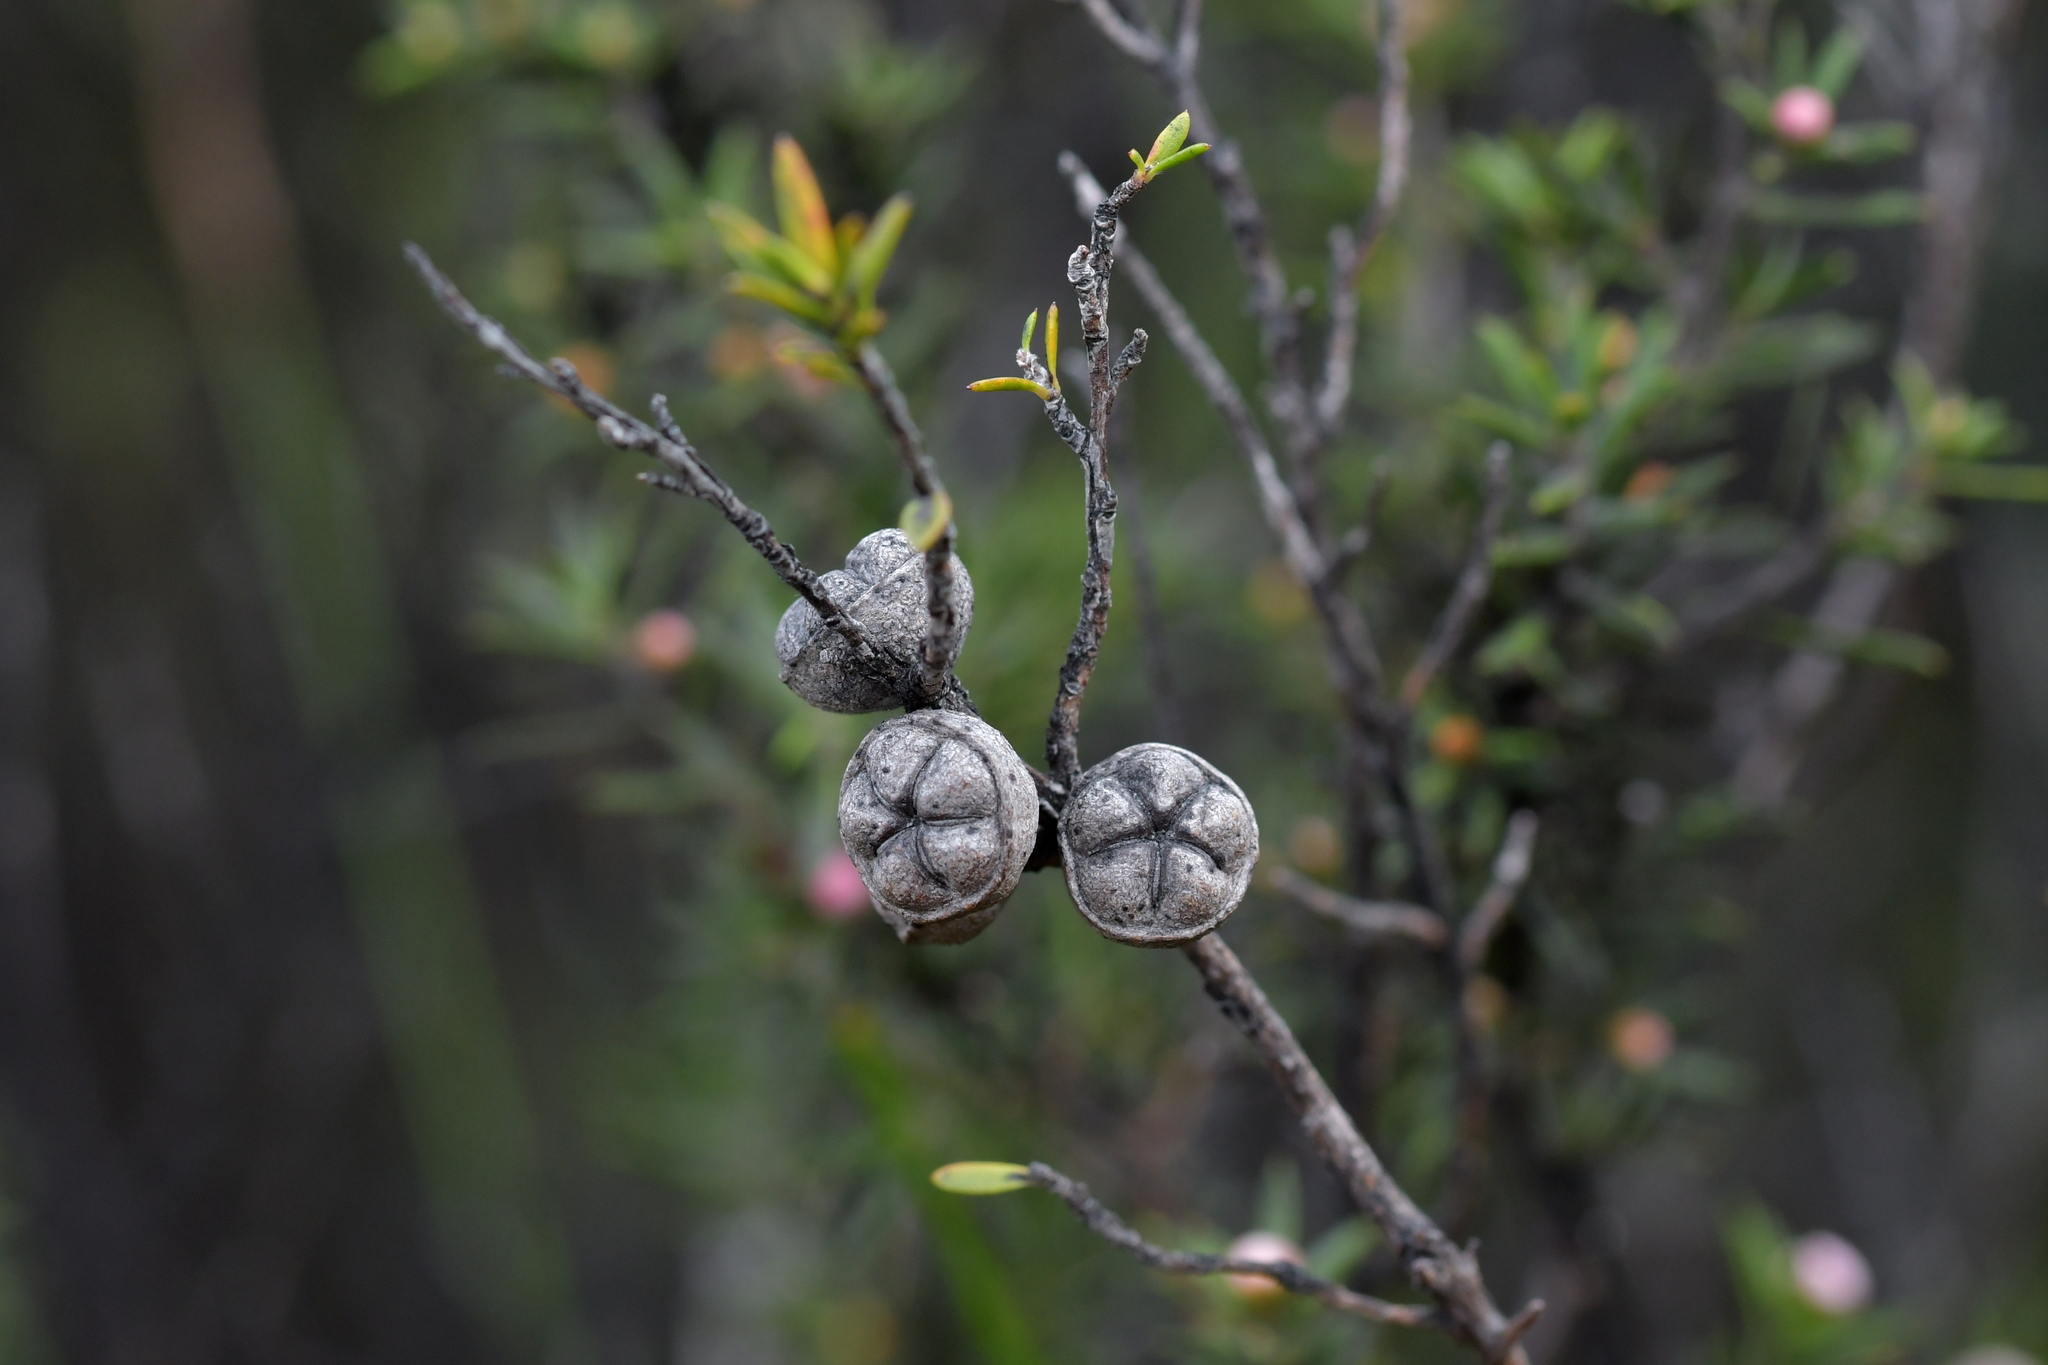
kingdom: Plantae
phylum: Tracheophyta
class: Magnoliopsida
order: Myrtales
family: Myrtaceae
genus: Leptospermum
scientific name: Leptospermum scoparium
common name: Broom tea-tree
